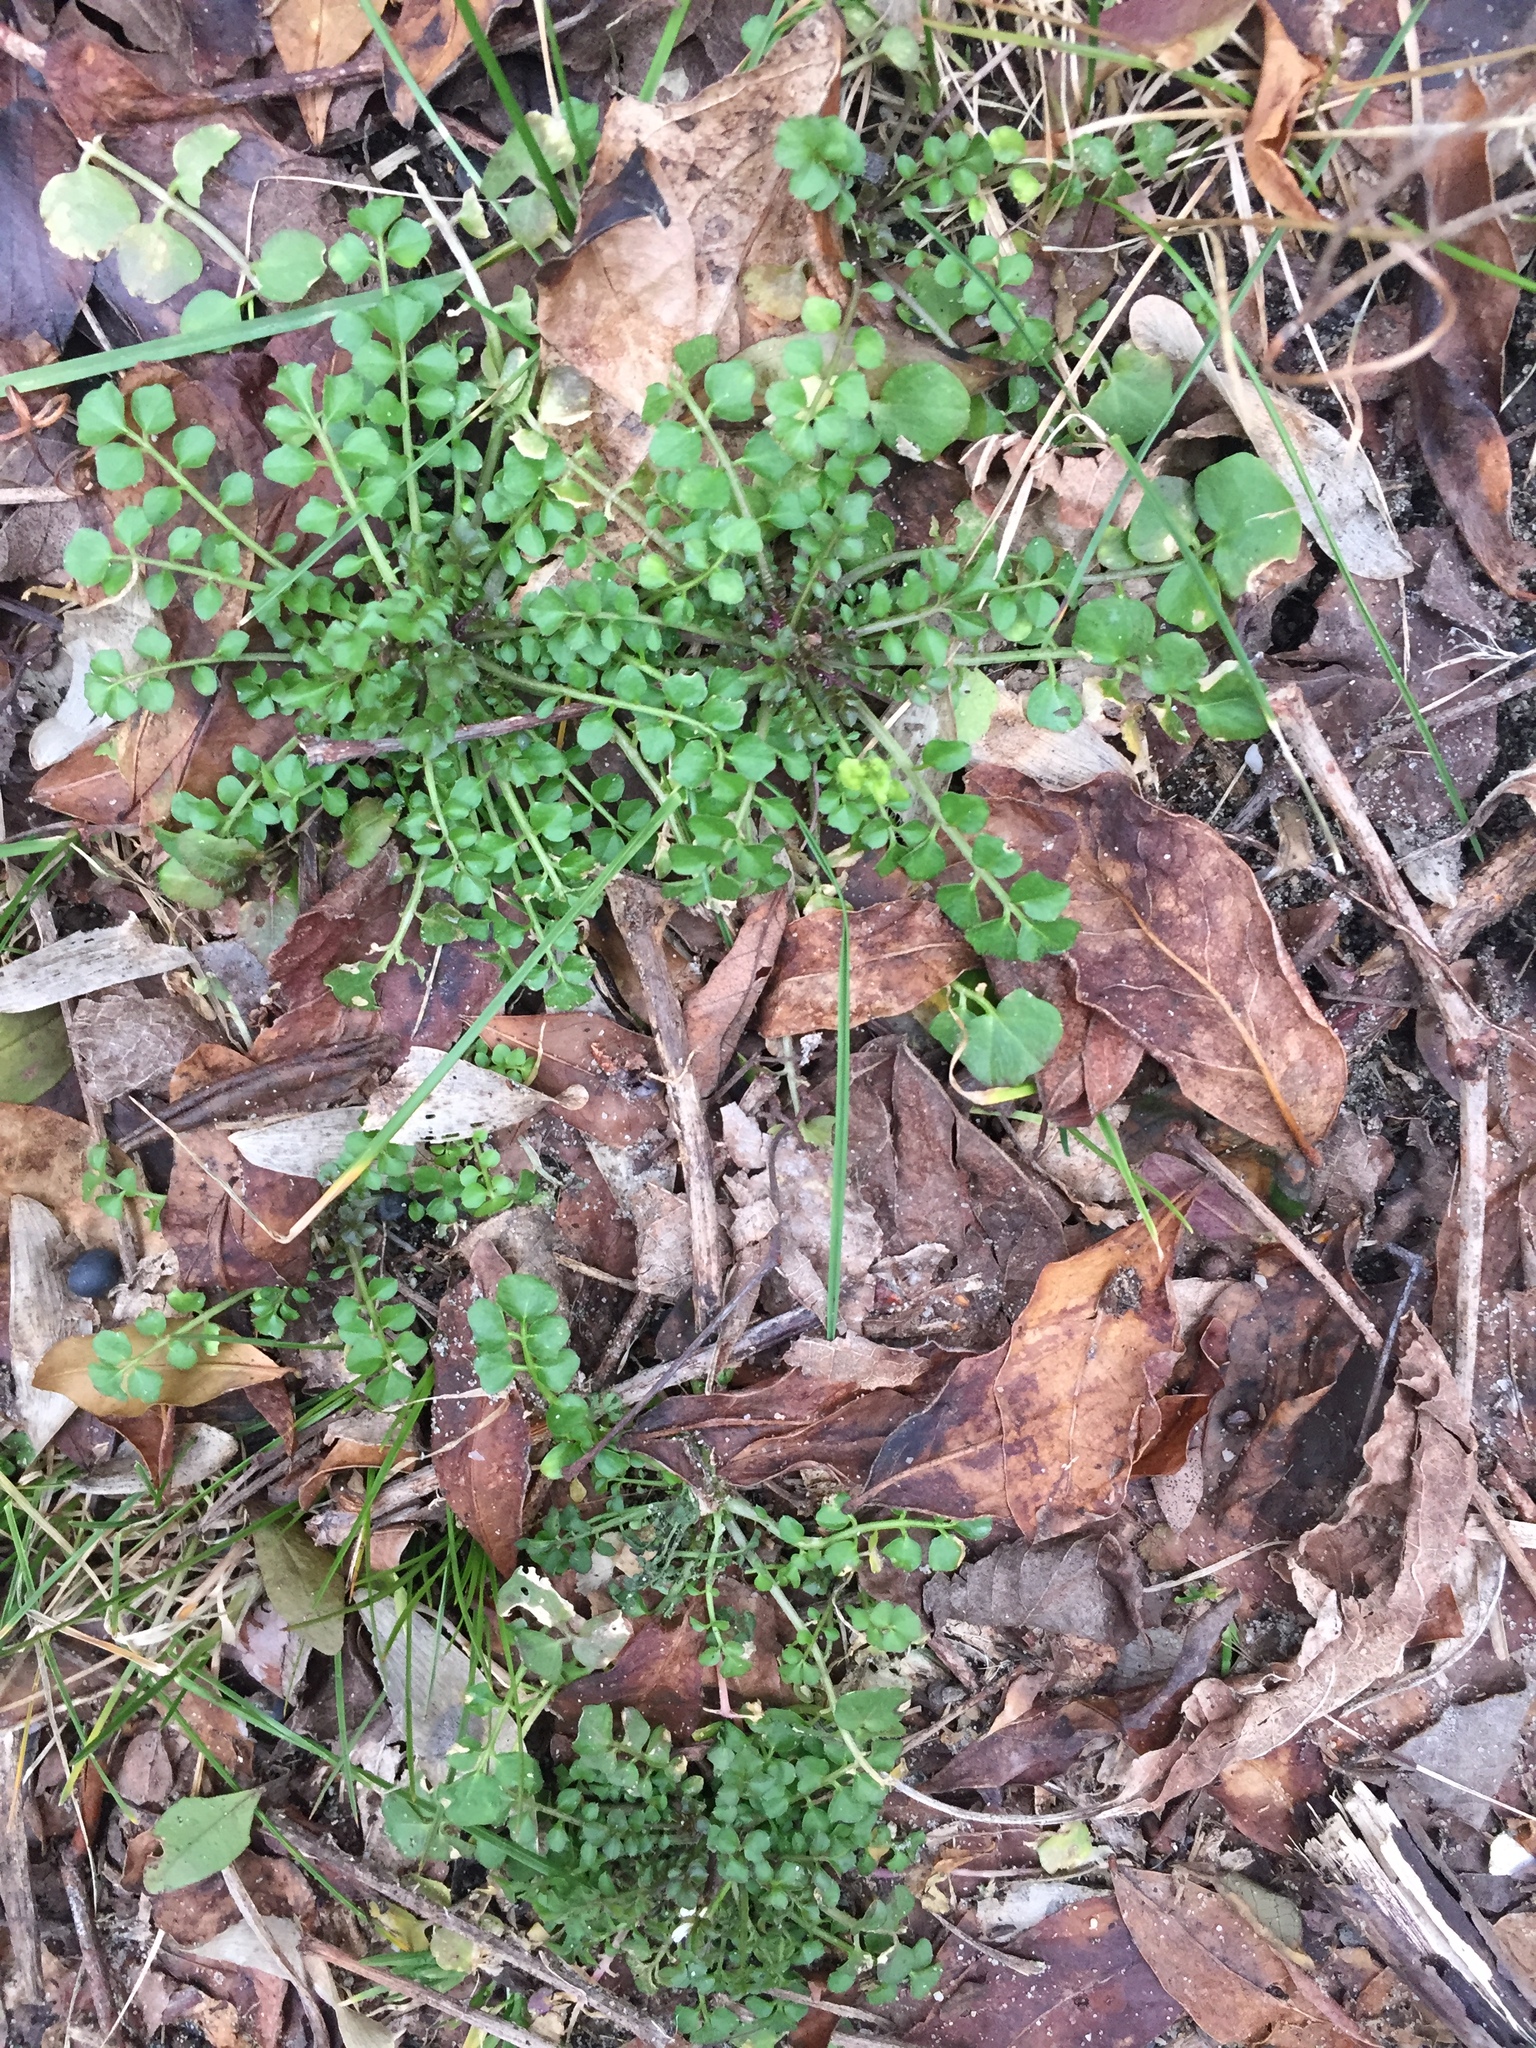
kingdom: Plantae
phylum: Tracheophyta
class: Magnoliopsida
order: Brassicales
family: Brassicaceae
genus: Cardamine
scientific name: Cardamine hirsuta
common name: Hairy bittercress
